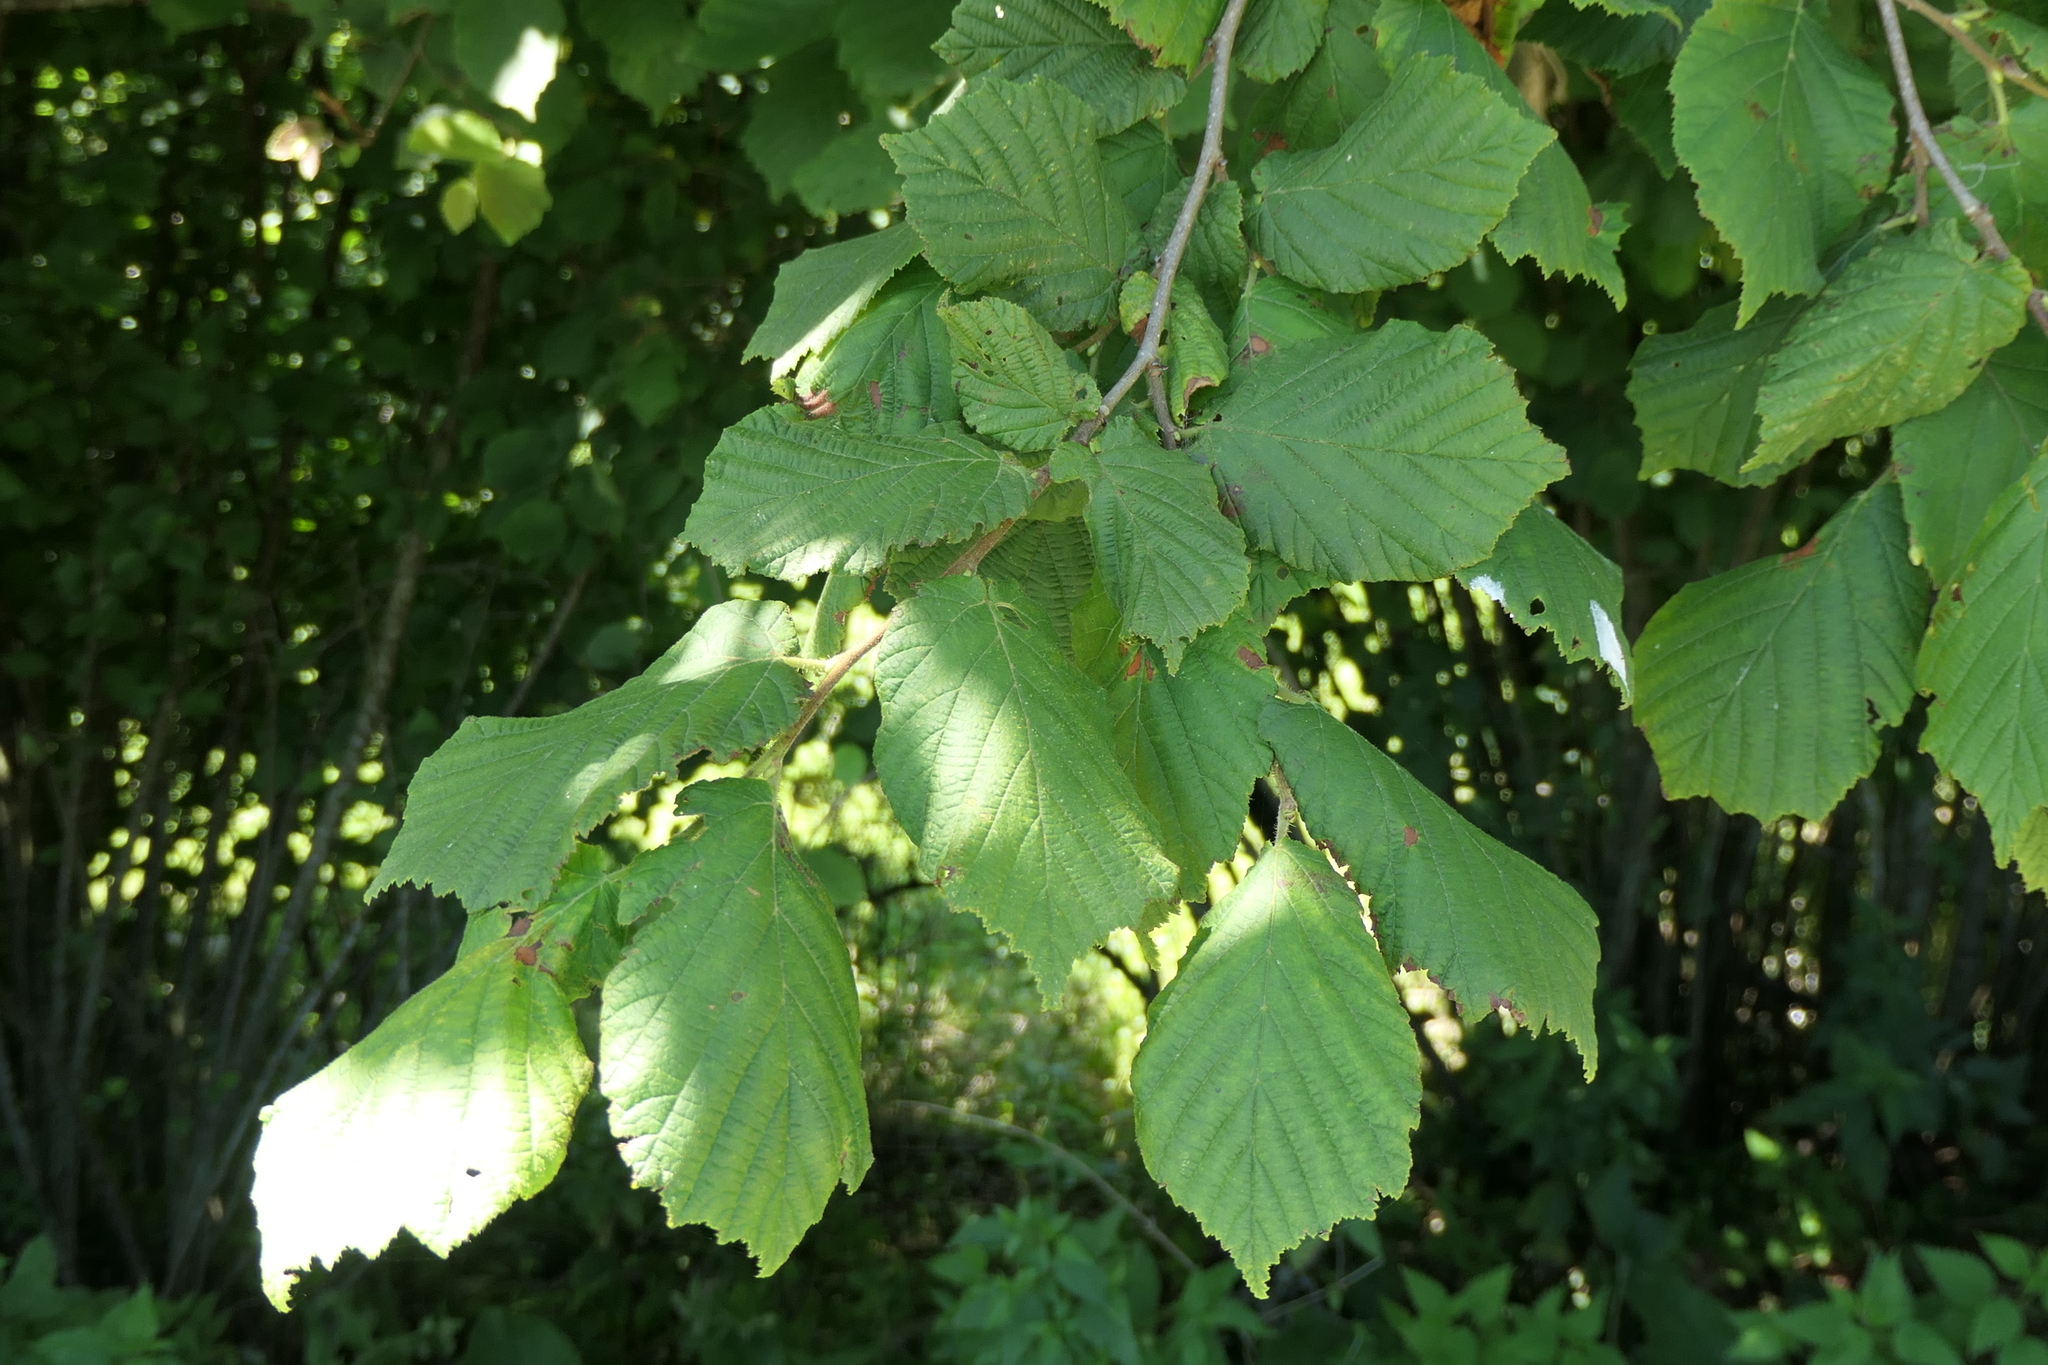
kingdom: Plantae
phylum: Tracheophyta
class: Magnoliopsida
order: Fagales
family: Betulaceae
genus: Corylus
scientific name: Corylus avellana
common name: European hazel
